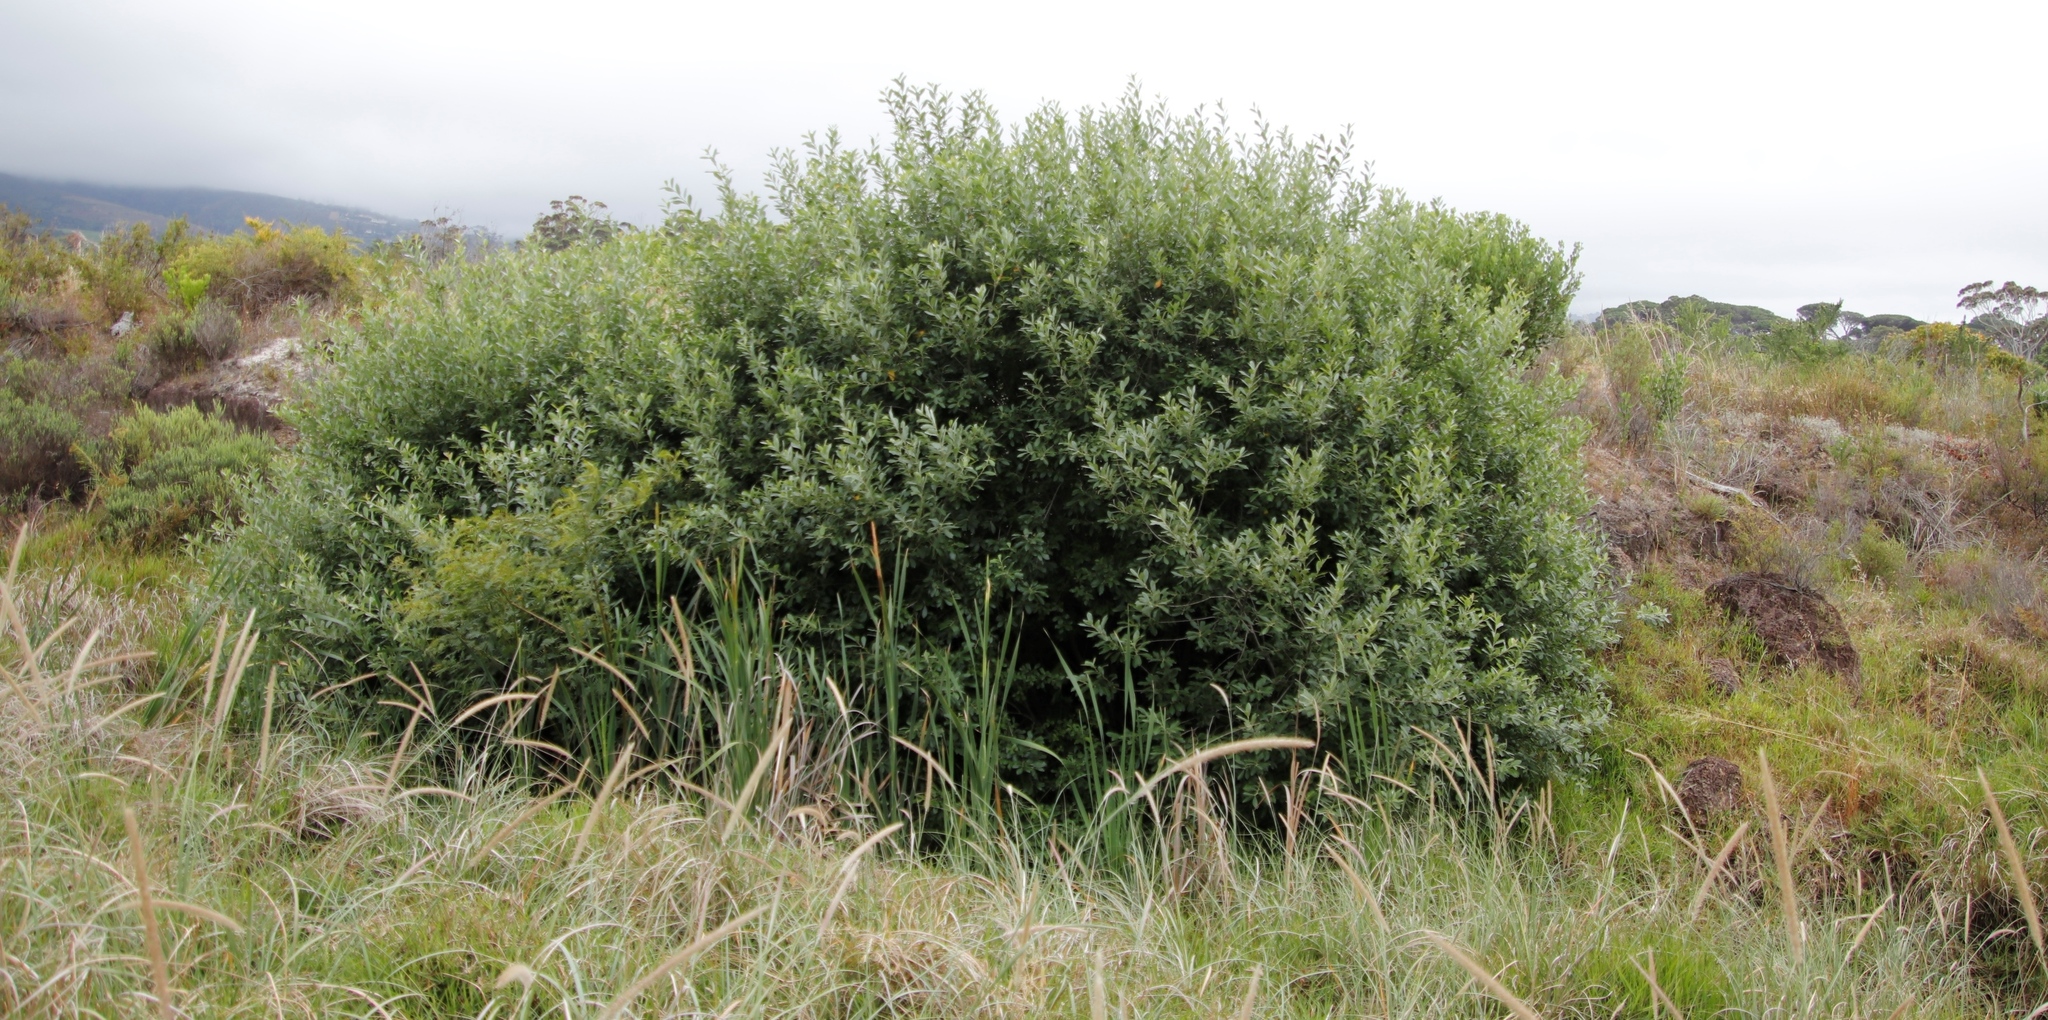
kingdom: Plantae
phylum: Tracheophyta
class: Magnoliopsida
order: Malpighiales
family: Achariaceae
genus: Kiggelaria
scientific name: Kiggelaria africana
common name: Wild peach
